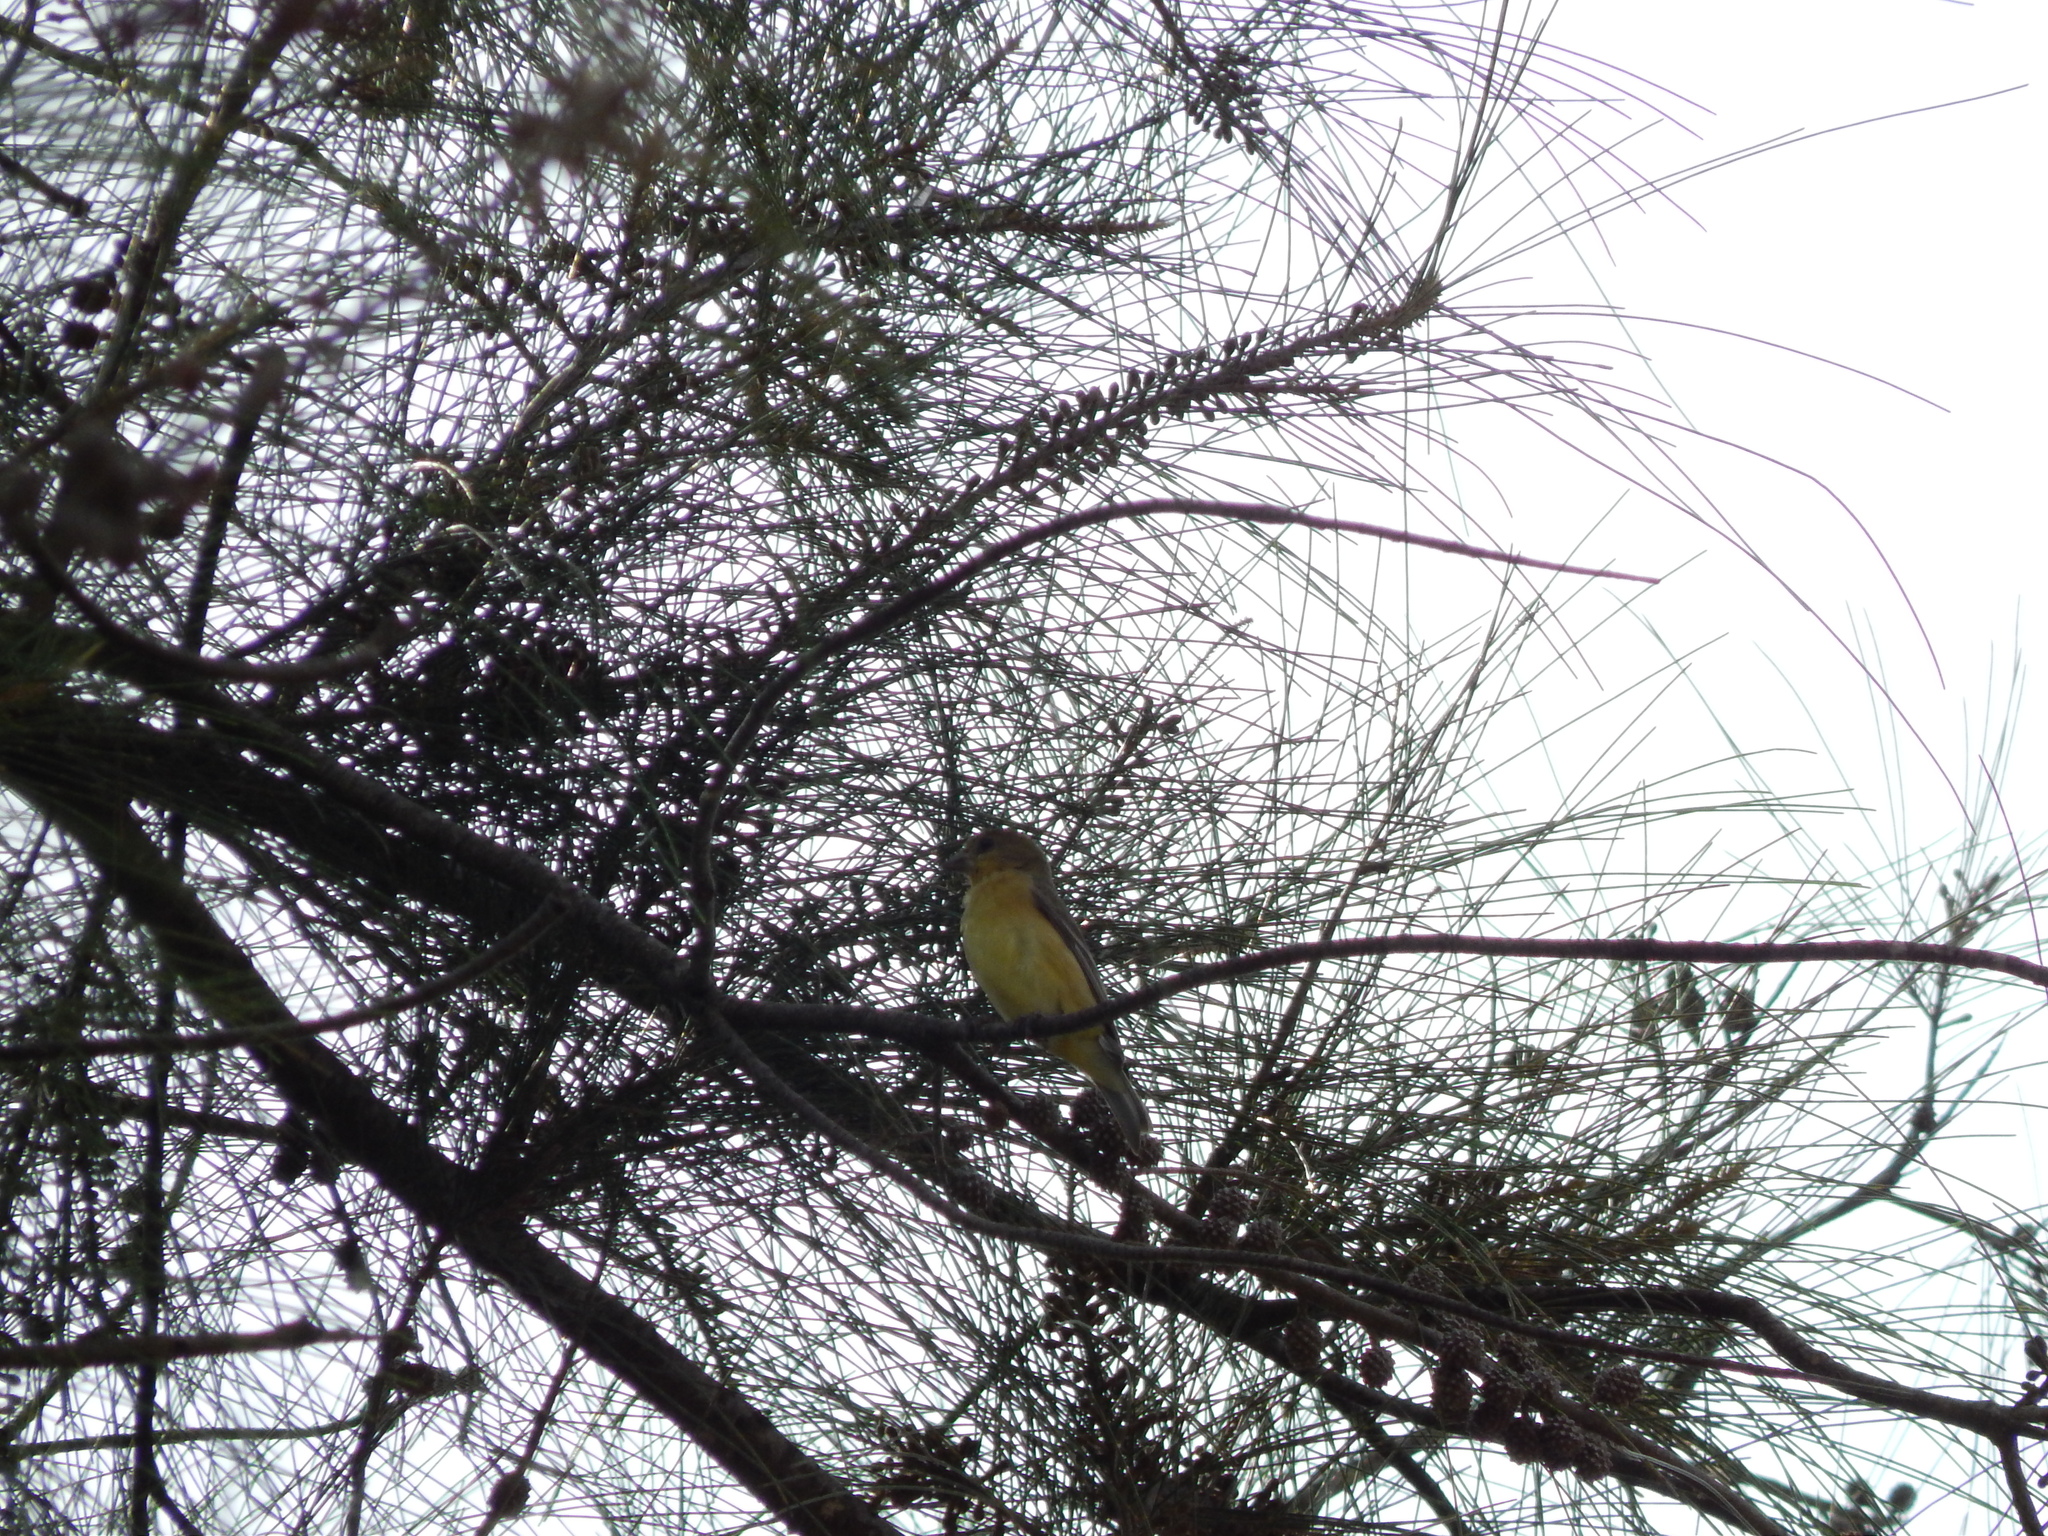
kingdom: Animalia
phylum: Chordata
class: Aves
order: Passeriformes
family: Fringillidae
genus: Spinus
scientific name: Spinus psaltria
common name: Lesser goldfinch
